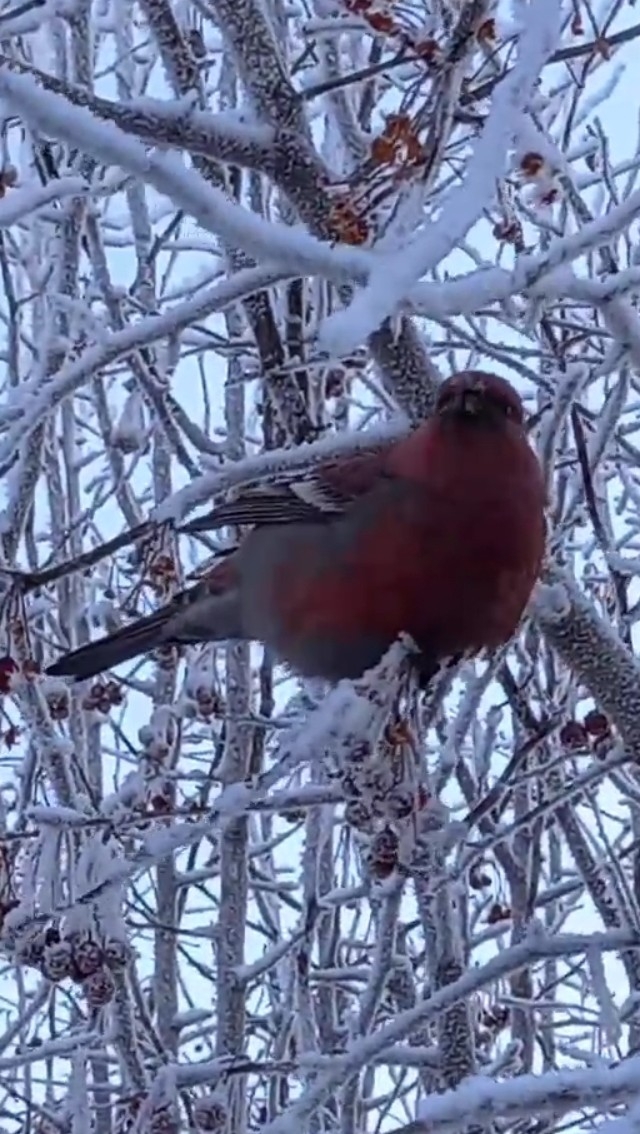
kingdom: Animalia
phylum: Chordata
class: Aves
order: Passeriformes
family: Fringillidae
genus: Pinicola
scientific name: Pinicola enucleator
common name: Pine grosbeak
